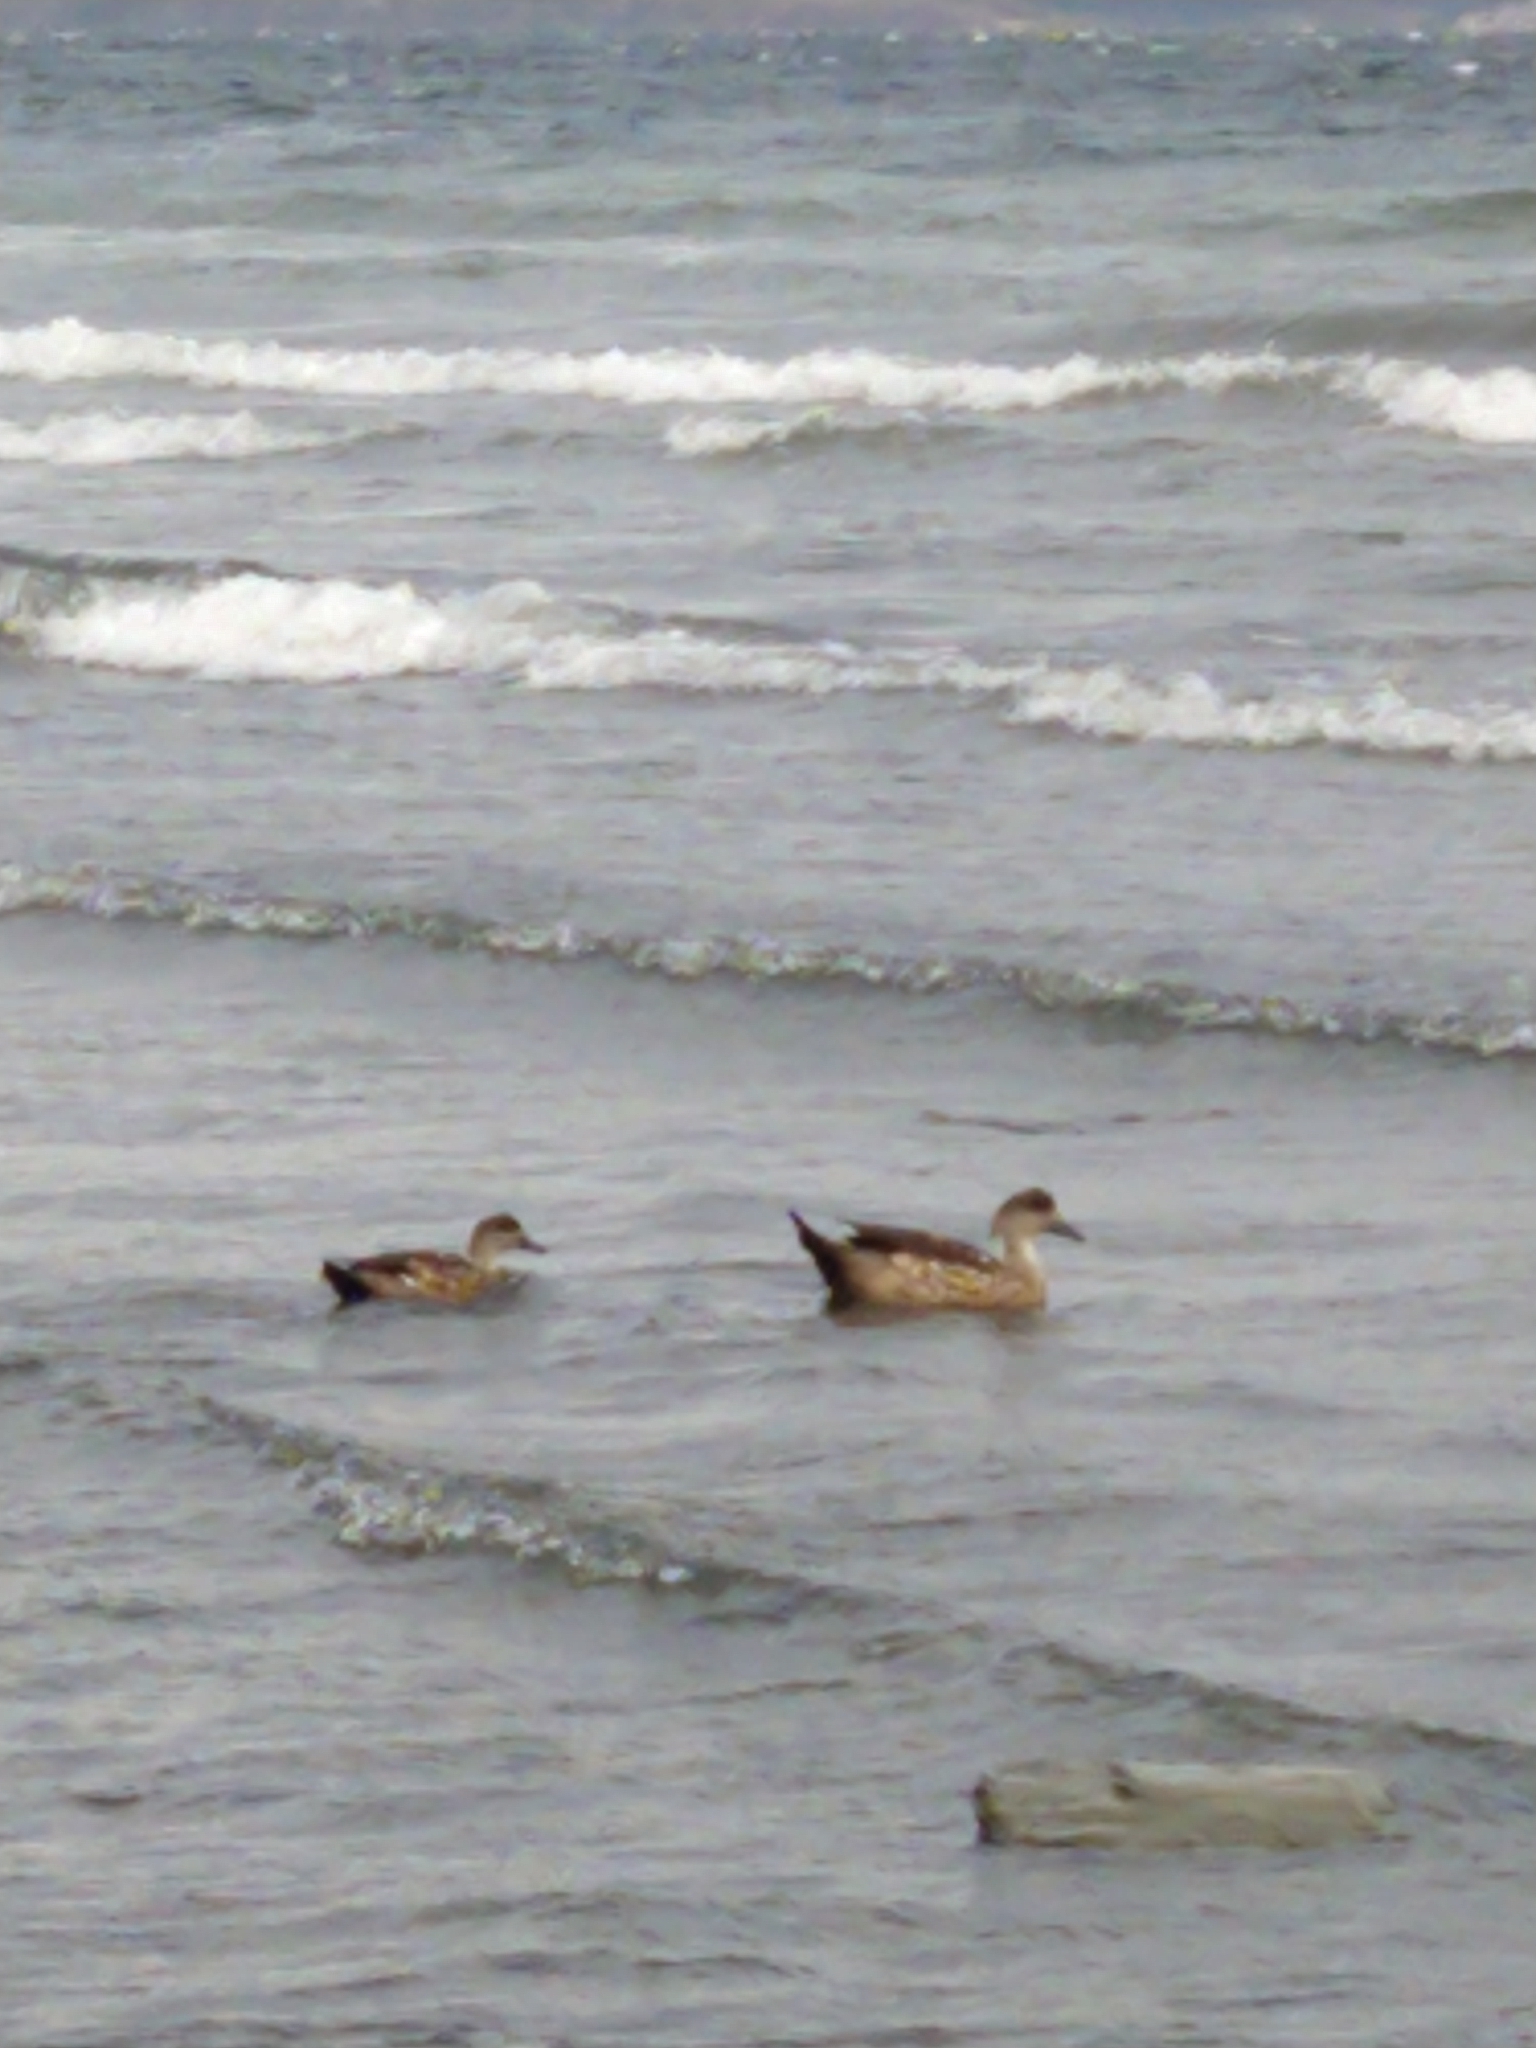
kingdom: Animalia
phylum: Chordata
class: Aves
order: Anseriformes
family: Anatidae
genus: Lophonetta
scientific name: Lophonetta specularioides
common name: Crested duck
